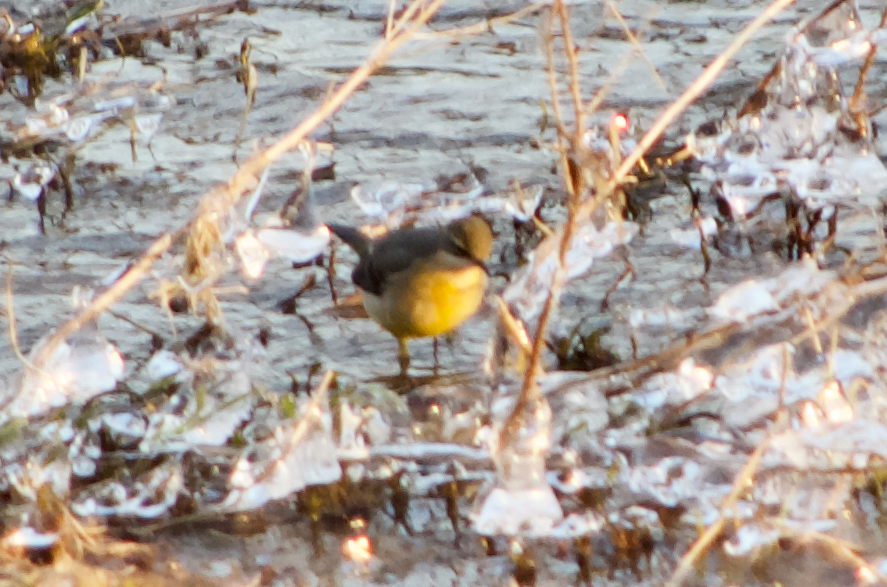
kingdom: Animalia
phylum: Chordata
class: Aves
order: Passeriformes
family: Motacillidae
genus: Motacilla
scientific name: Motacilla cinerea
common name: Grey wagtail
